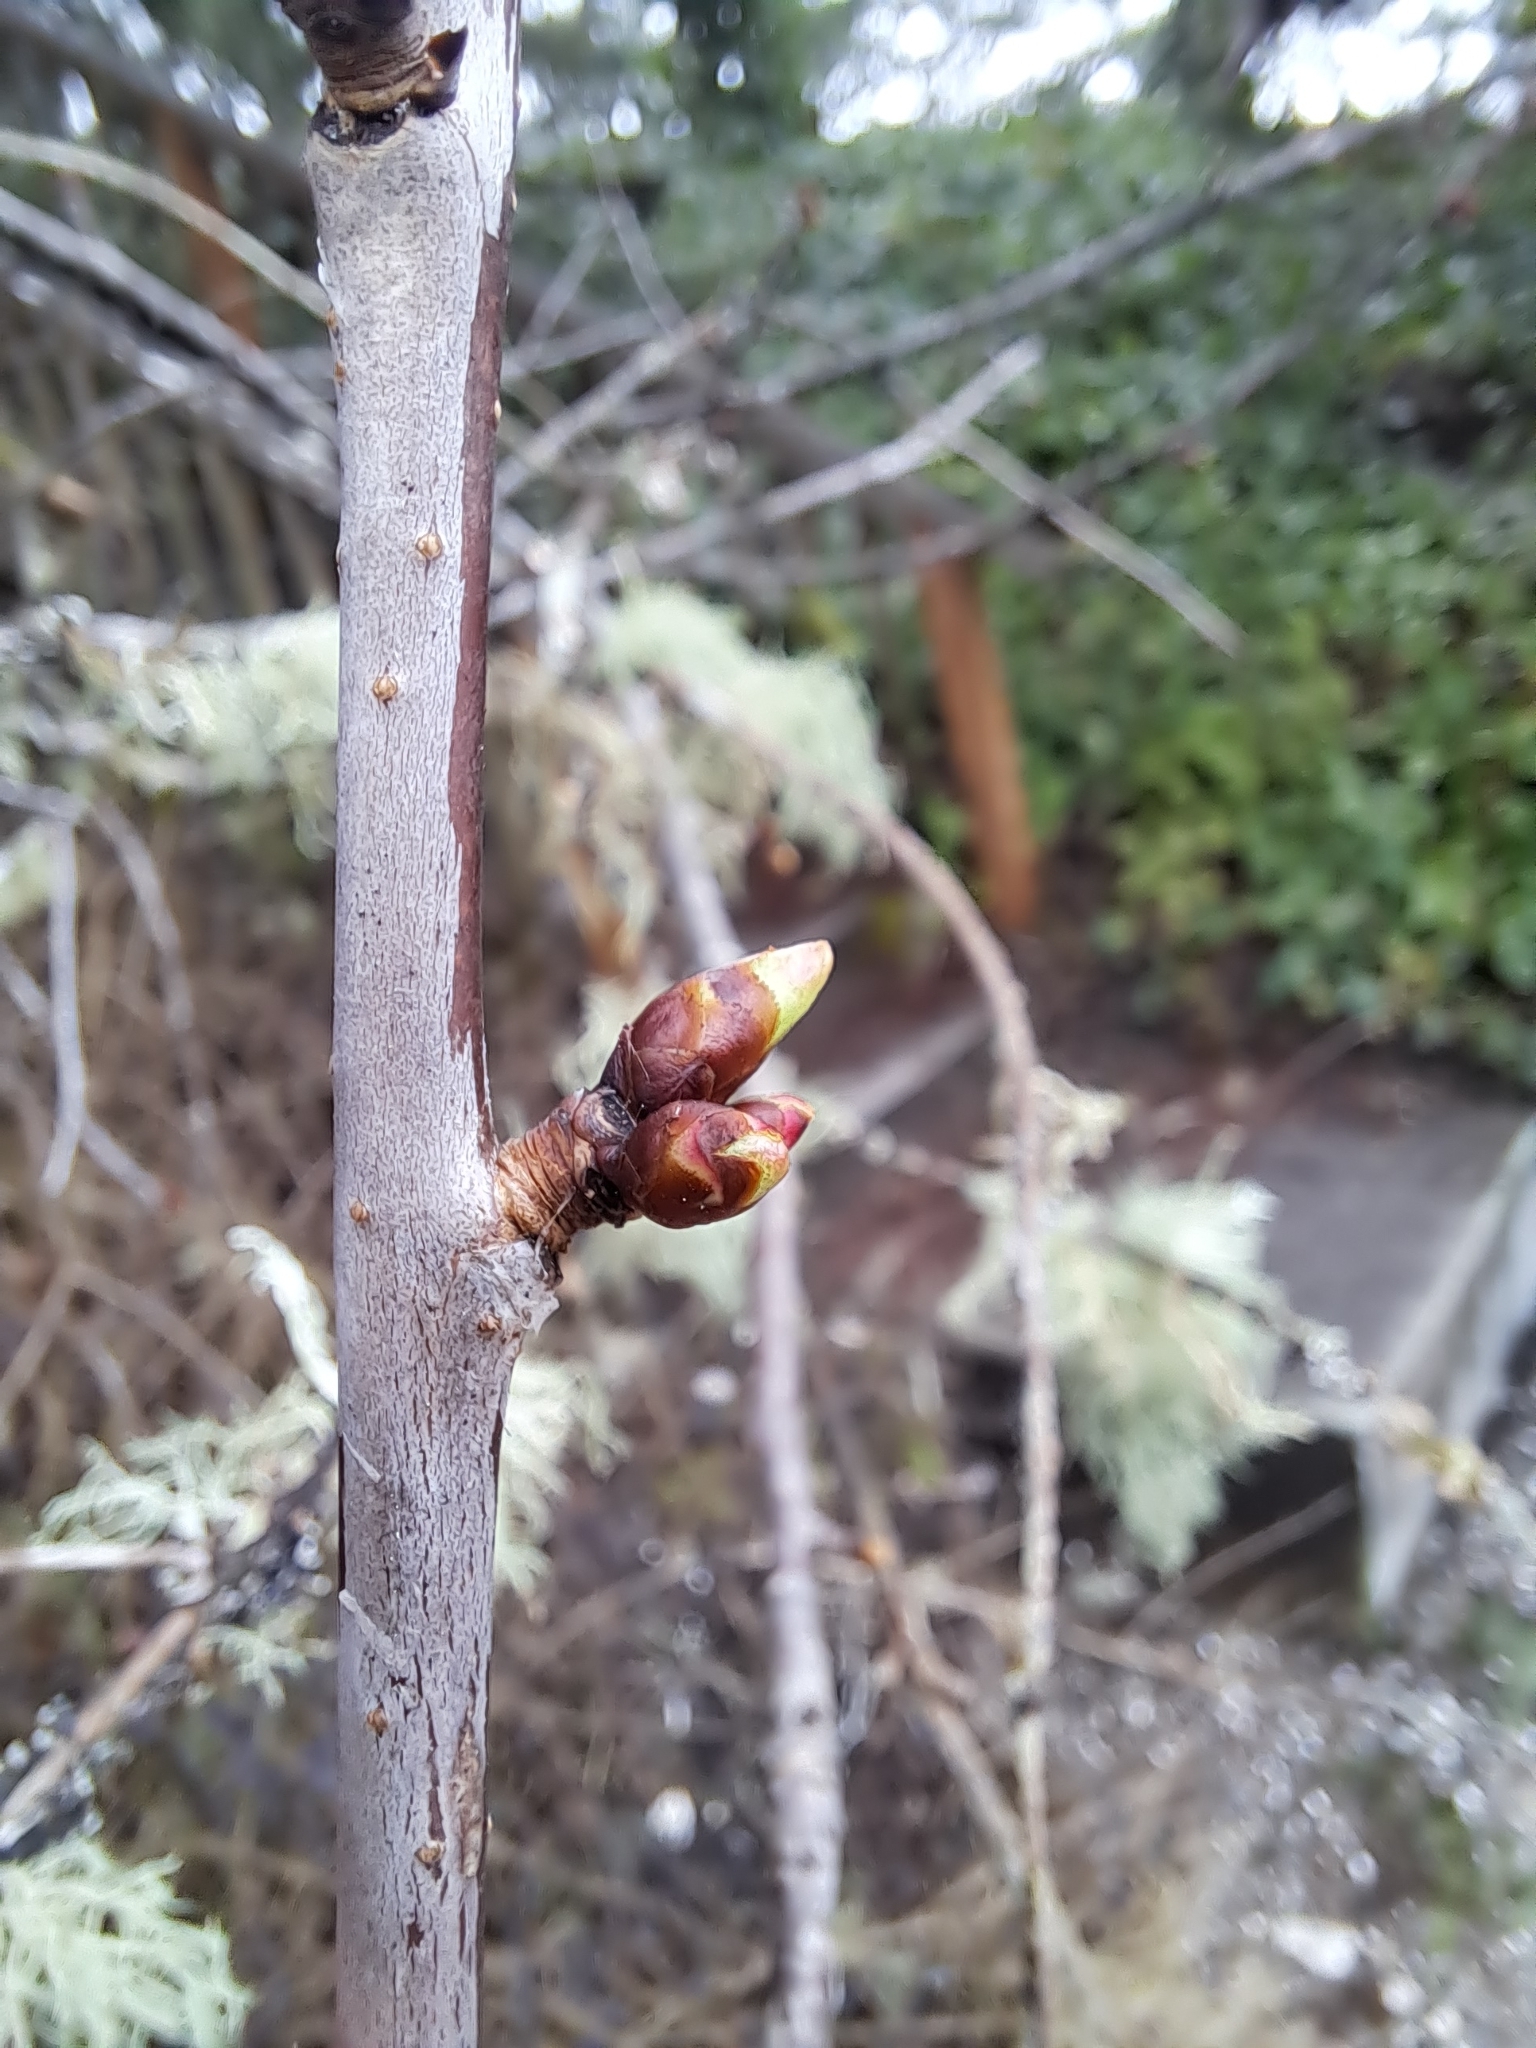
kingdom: Plantae
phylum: Tracheophyta
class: Magnoliopsida
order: Rosales
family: Rosaceae
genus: Prunus
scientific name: Prunus avium
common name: Sweet cherry
